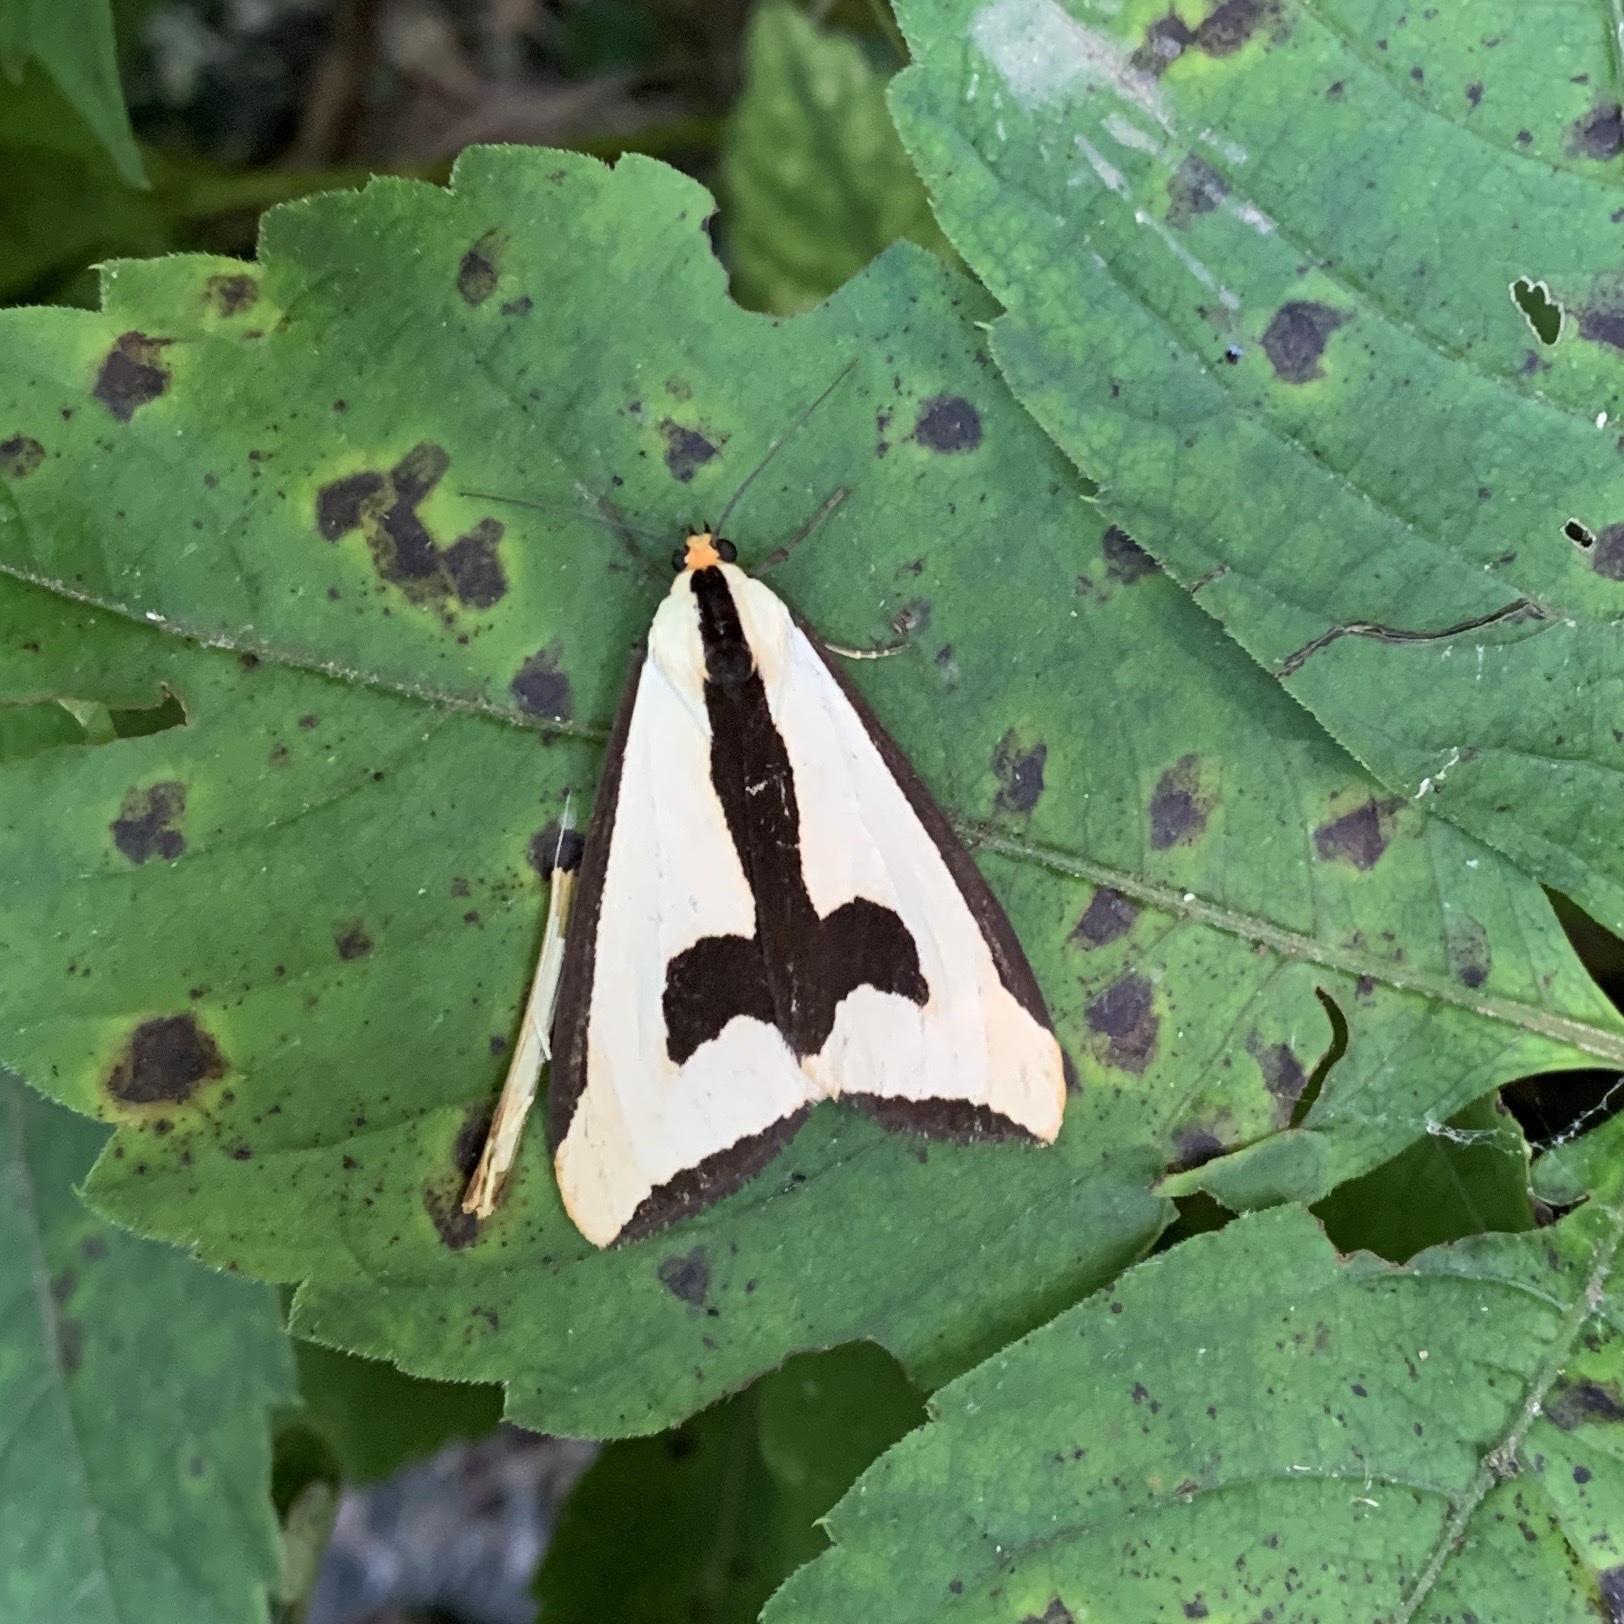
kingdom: Animalia
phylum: Arthropoda
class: Insecta
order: Lepidoptera
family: Erebidae
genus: Haploa
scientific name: Haploa clymene
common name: Clymene moth
